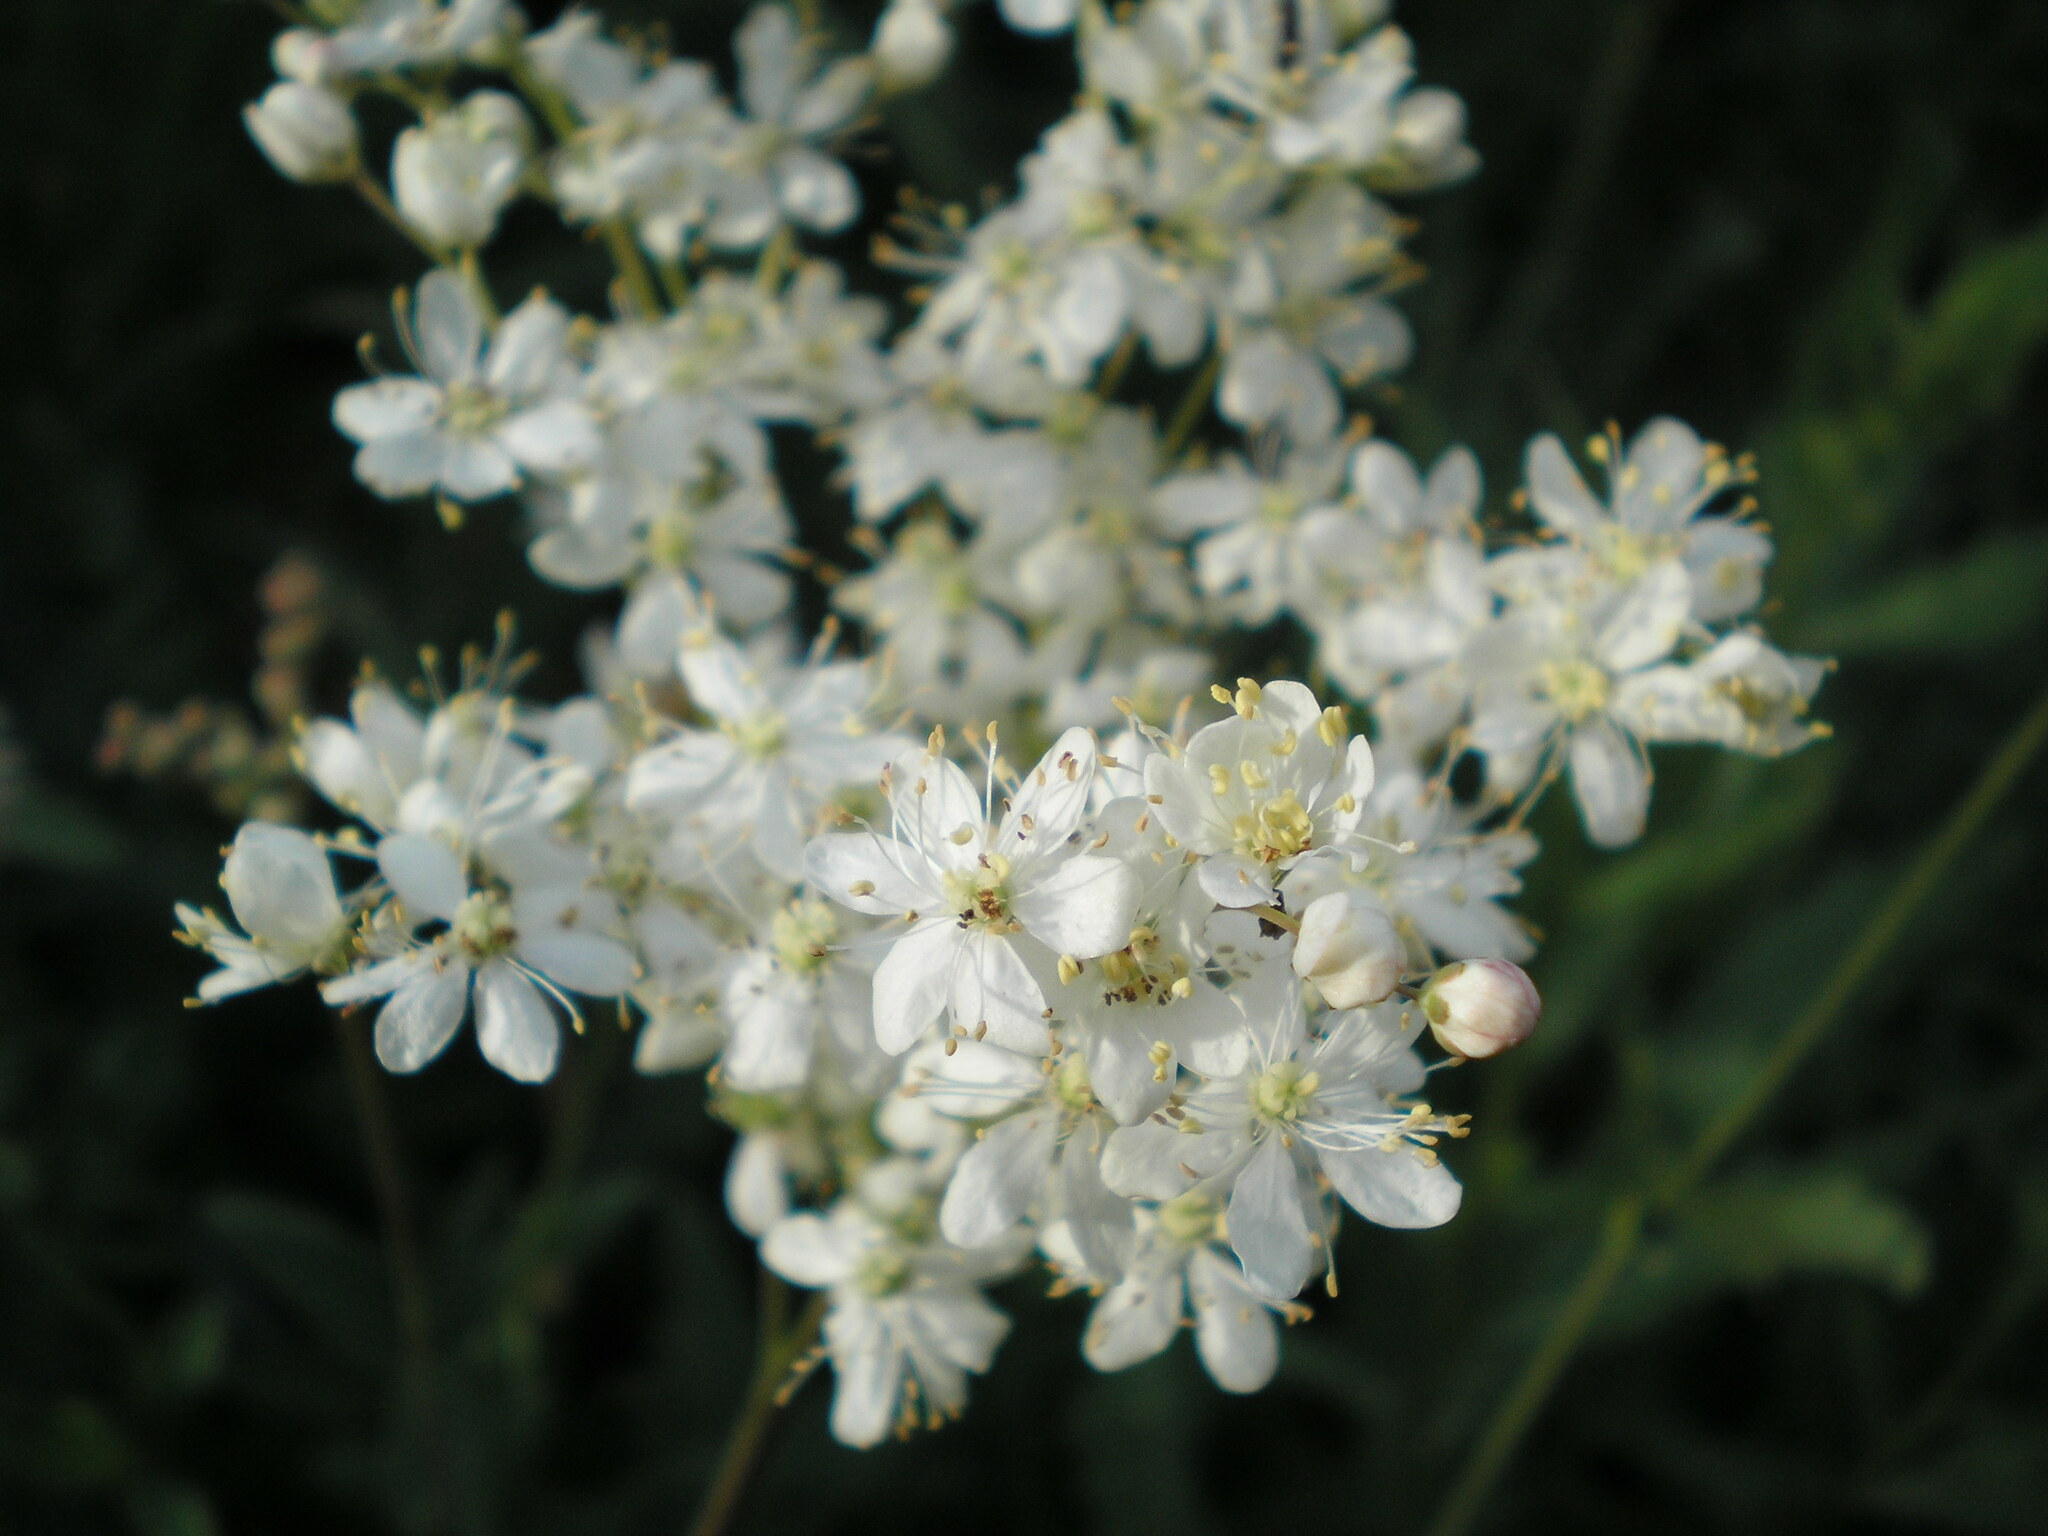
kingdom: Plantae
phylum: Tracheophyta
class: Magnoliopsida
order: Rosales
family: Rosaceae
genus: Filipendula
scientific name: Filipendula vulgaris
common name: Dropwort
